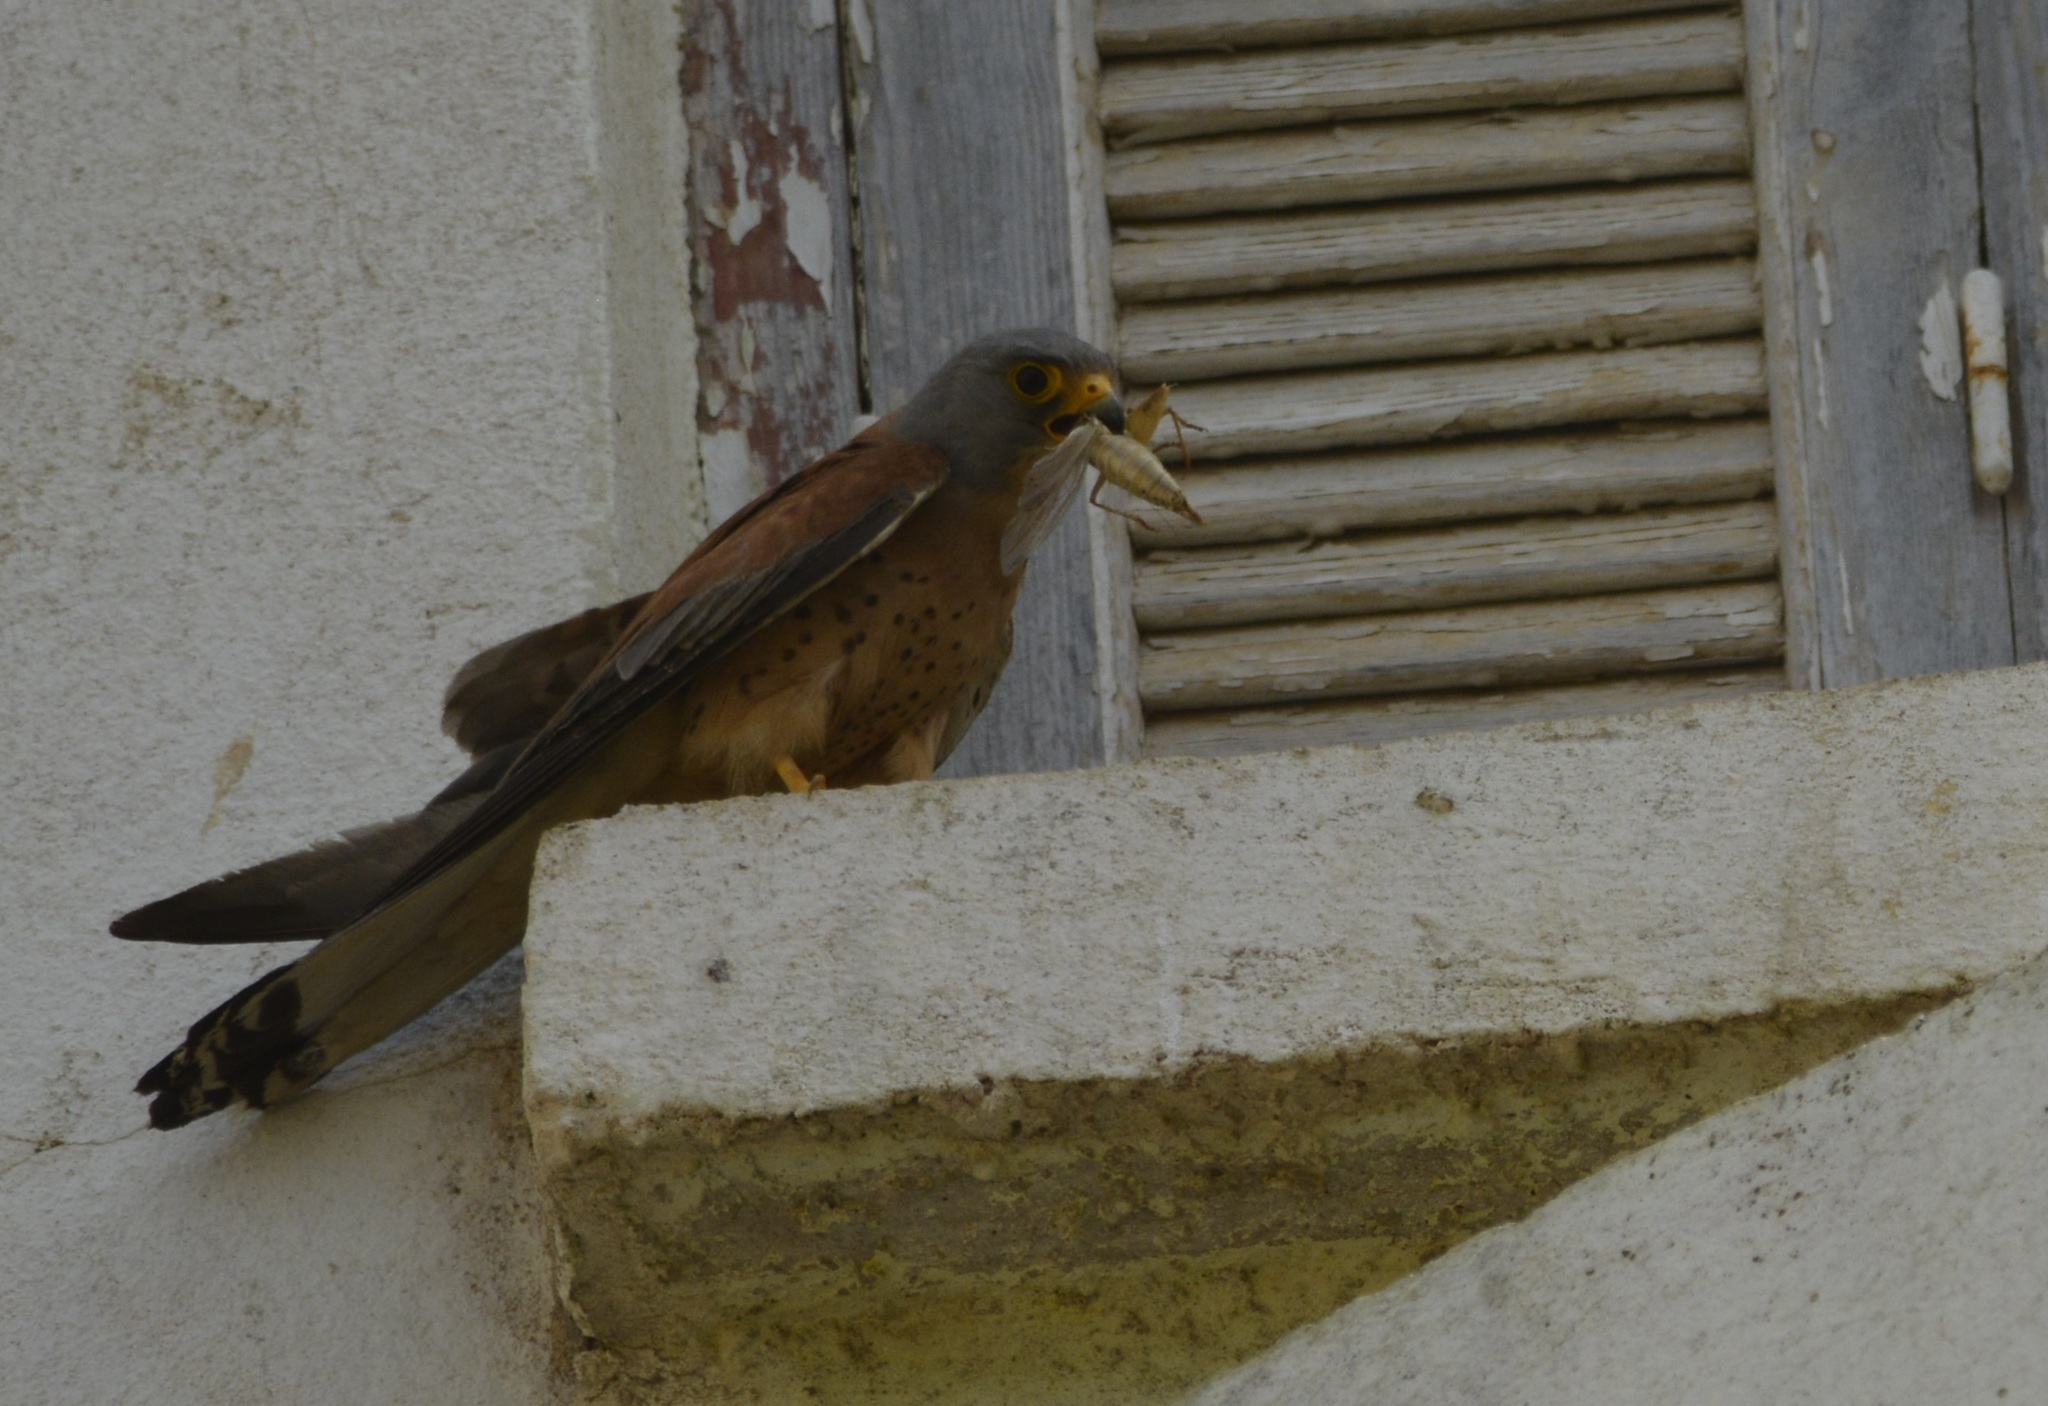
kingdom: Animalia
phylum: Chordata
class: Aves
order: Falconiformes
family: Falconidae
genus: Falco
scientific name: Falco naumanni
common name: Lesser kestrel
